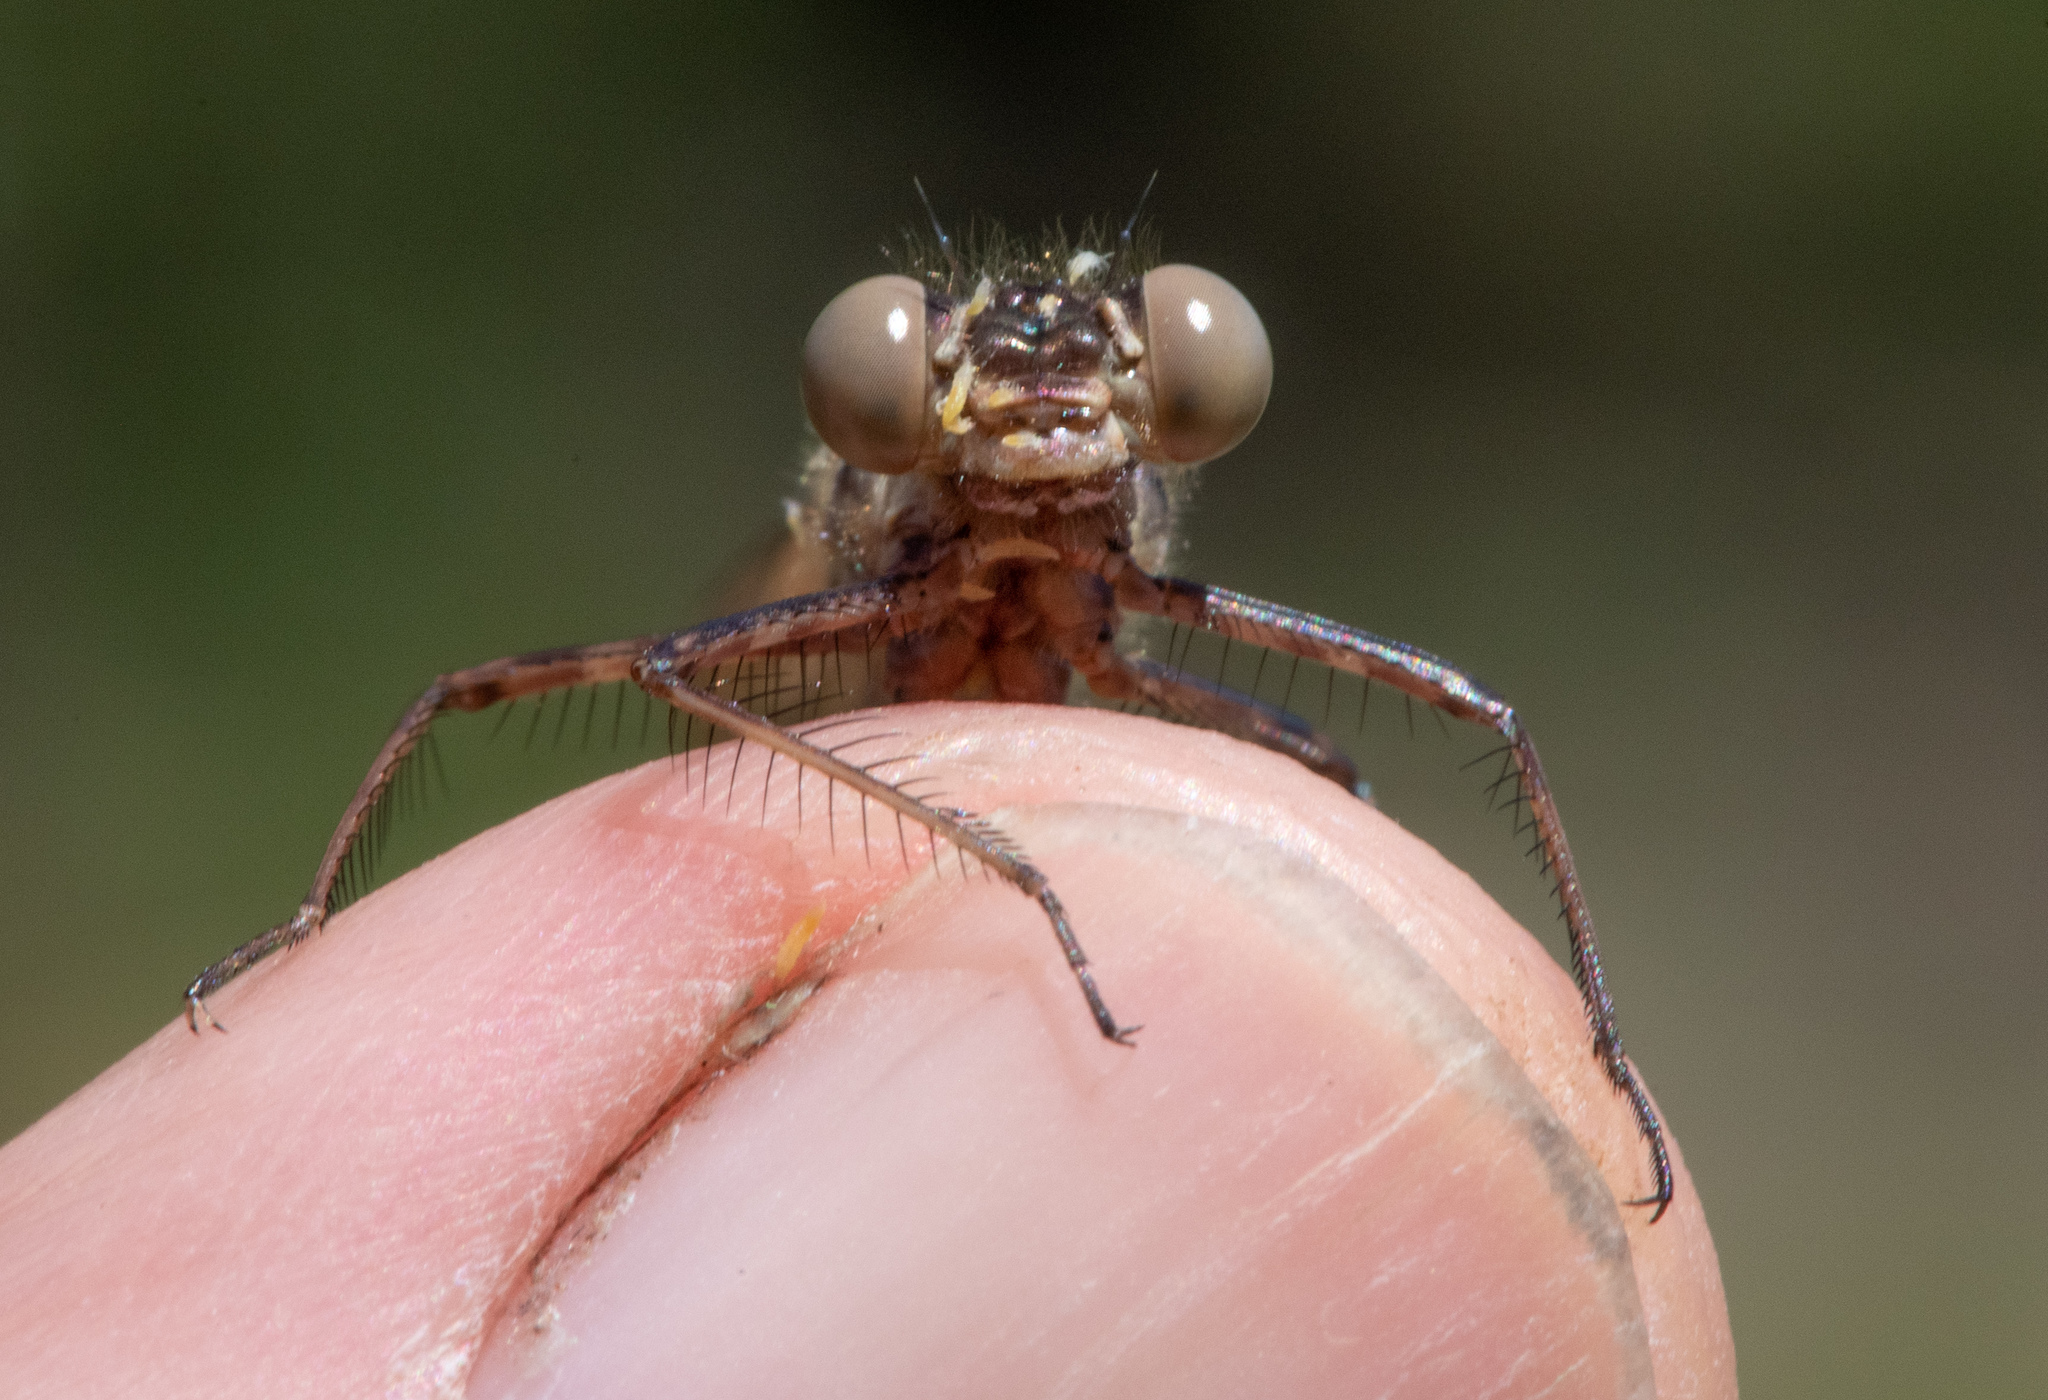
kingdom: Animalia
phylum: Arthropoda
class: Insecta
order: Odonata
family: Calopterygidae
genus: Hetaerina
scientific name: Hetaerina americana
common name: American rubyspot
